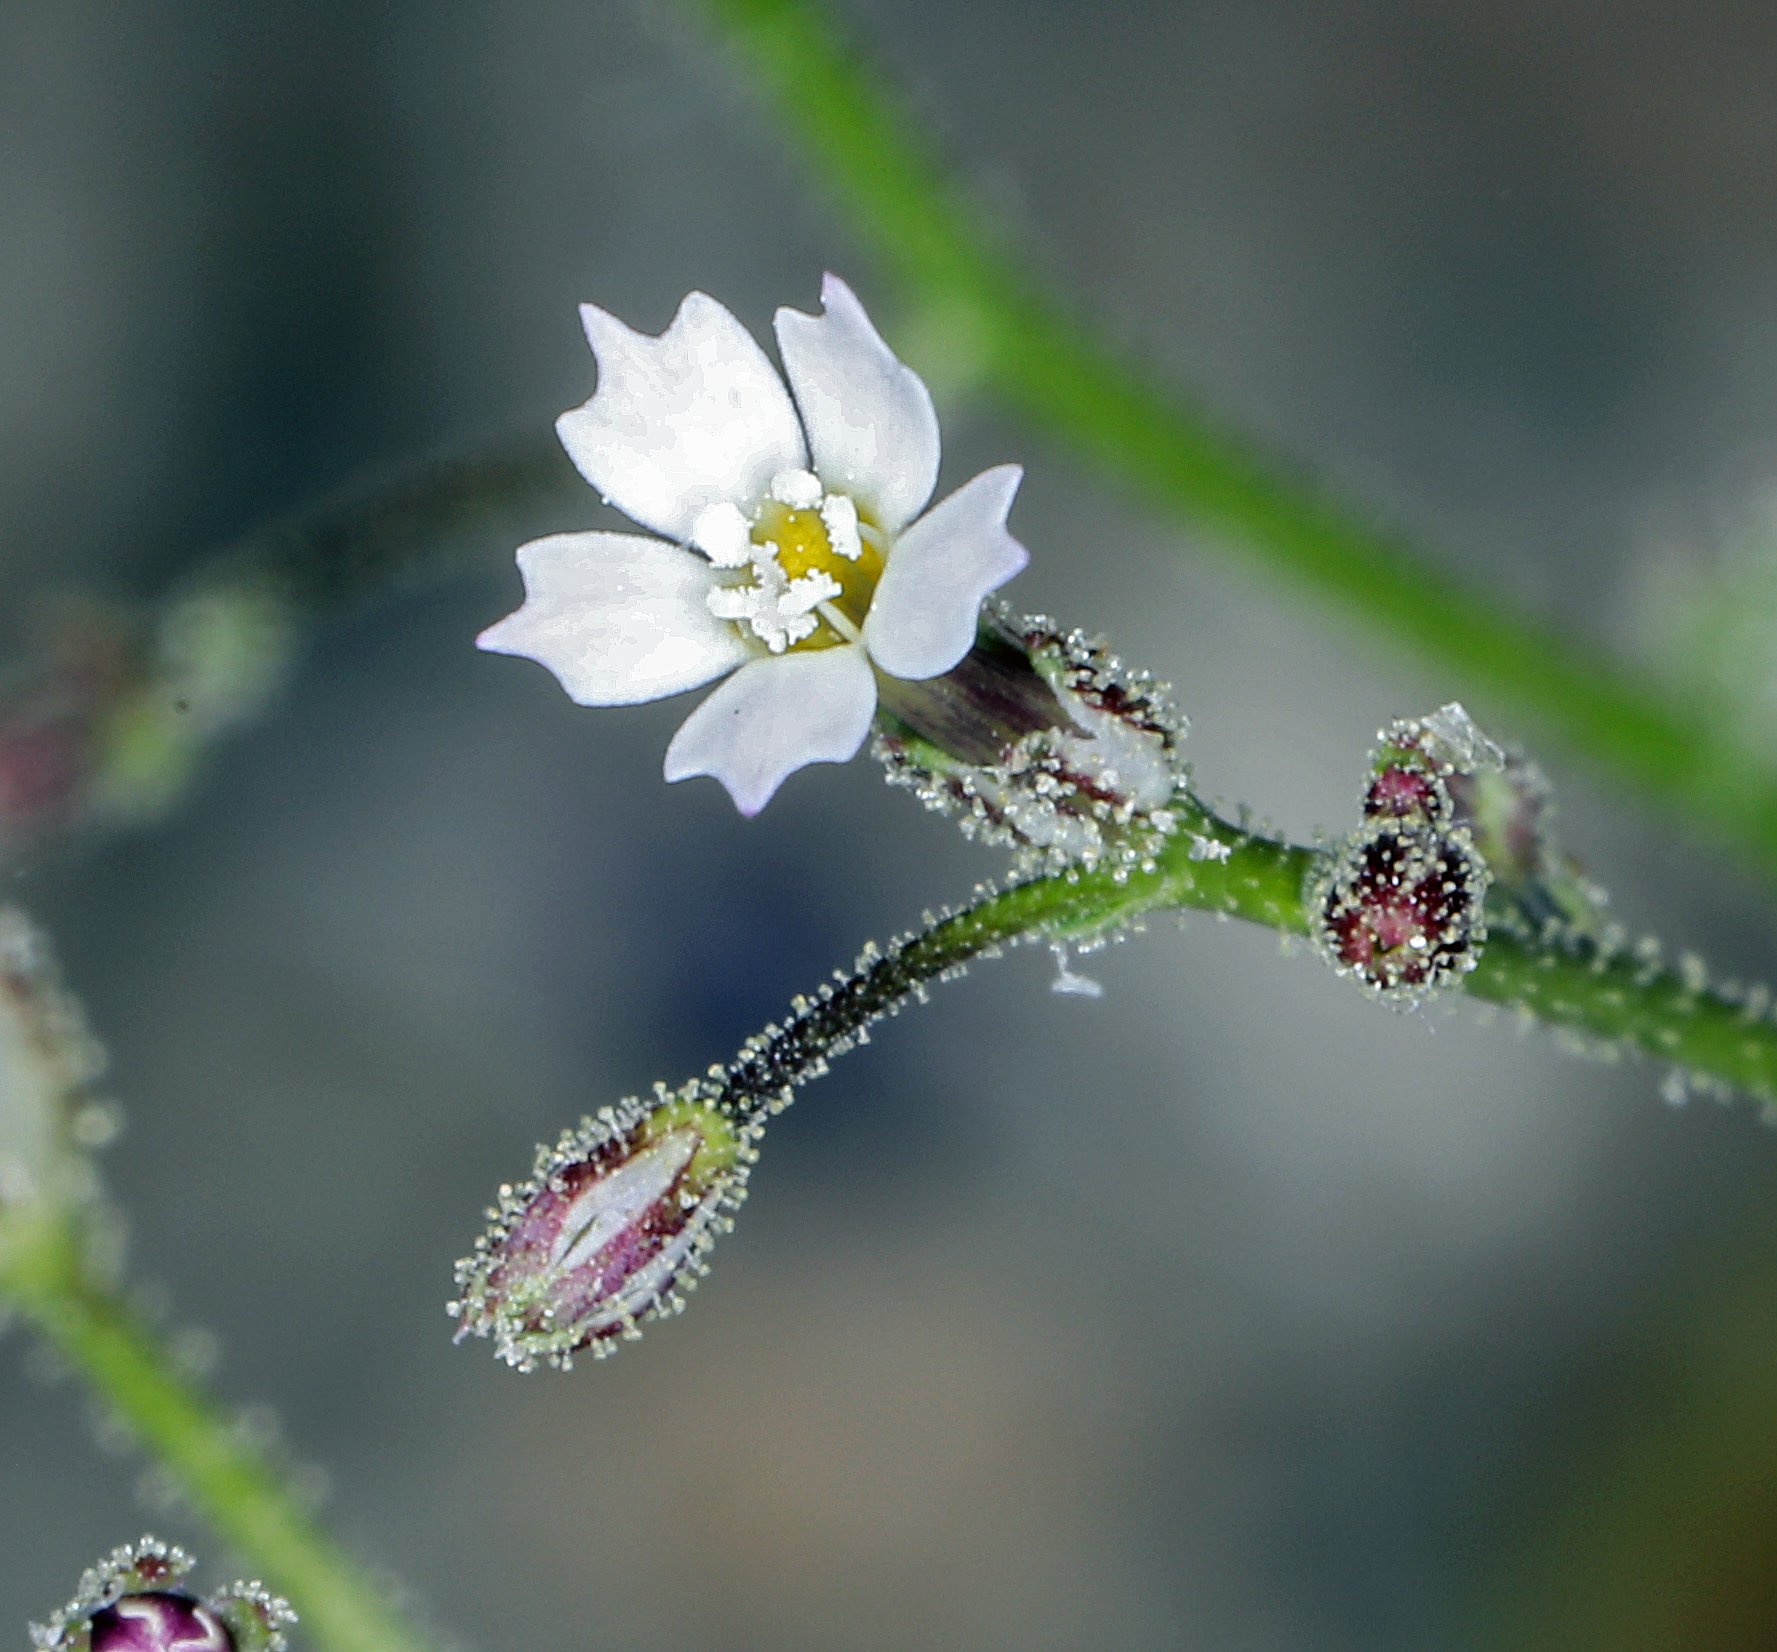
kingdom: Plantae
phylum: Tracheophyta
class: Magnoliopsida
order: Ericales
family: Polemoniaceae
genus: Aliciella
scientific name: Aliciella leptomeria
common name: Sand gilia
